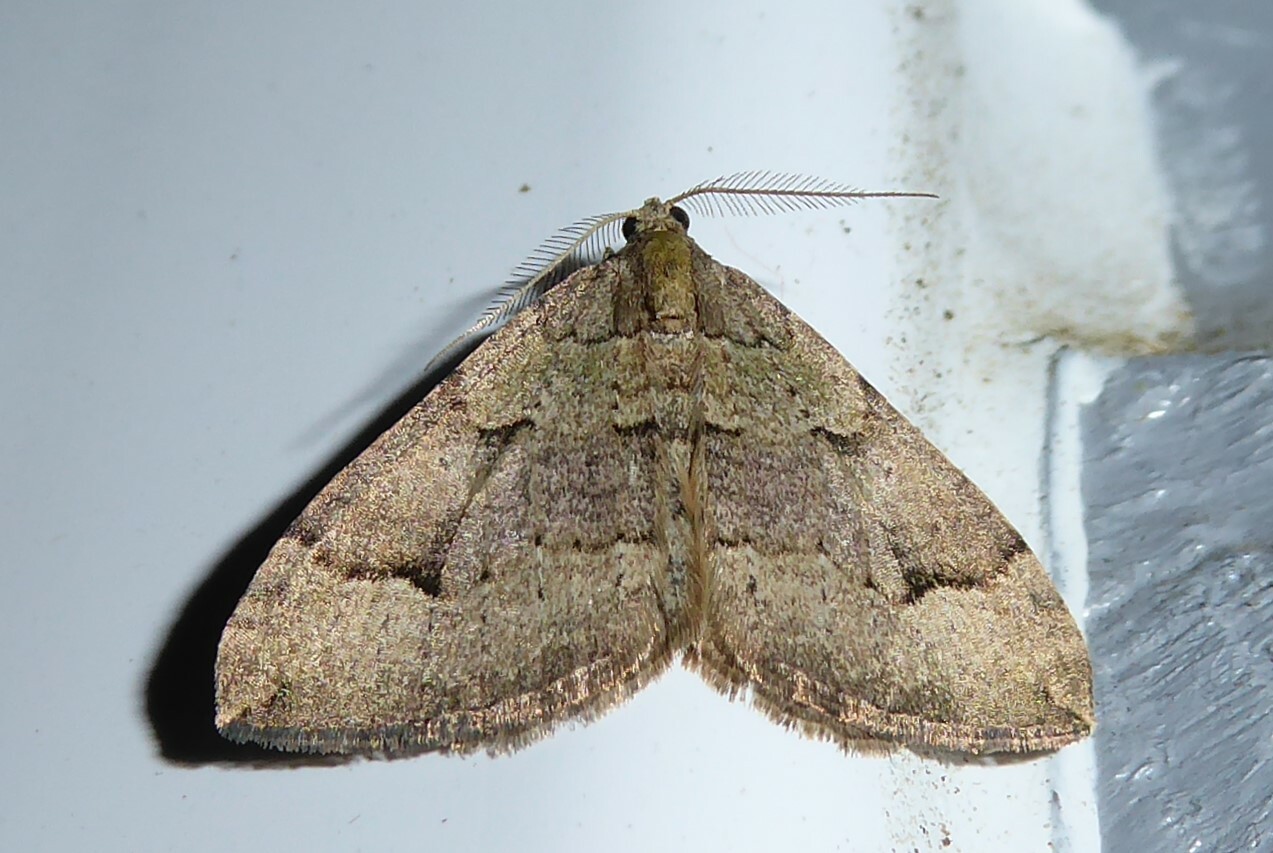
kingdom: Animalia
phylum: Arthropoda
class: Insecta
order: Lepidoptera
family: Geometridae
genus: Epyaxa
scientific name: Epyaxa rosearia
